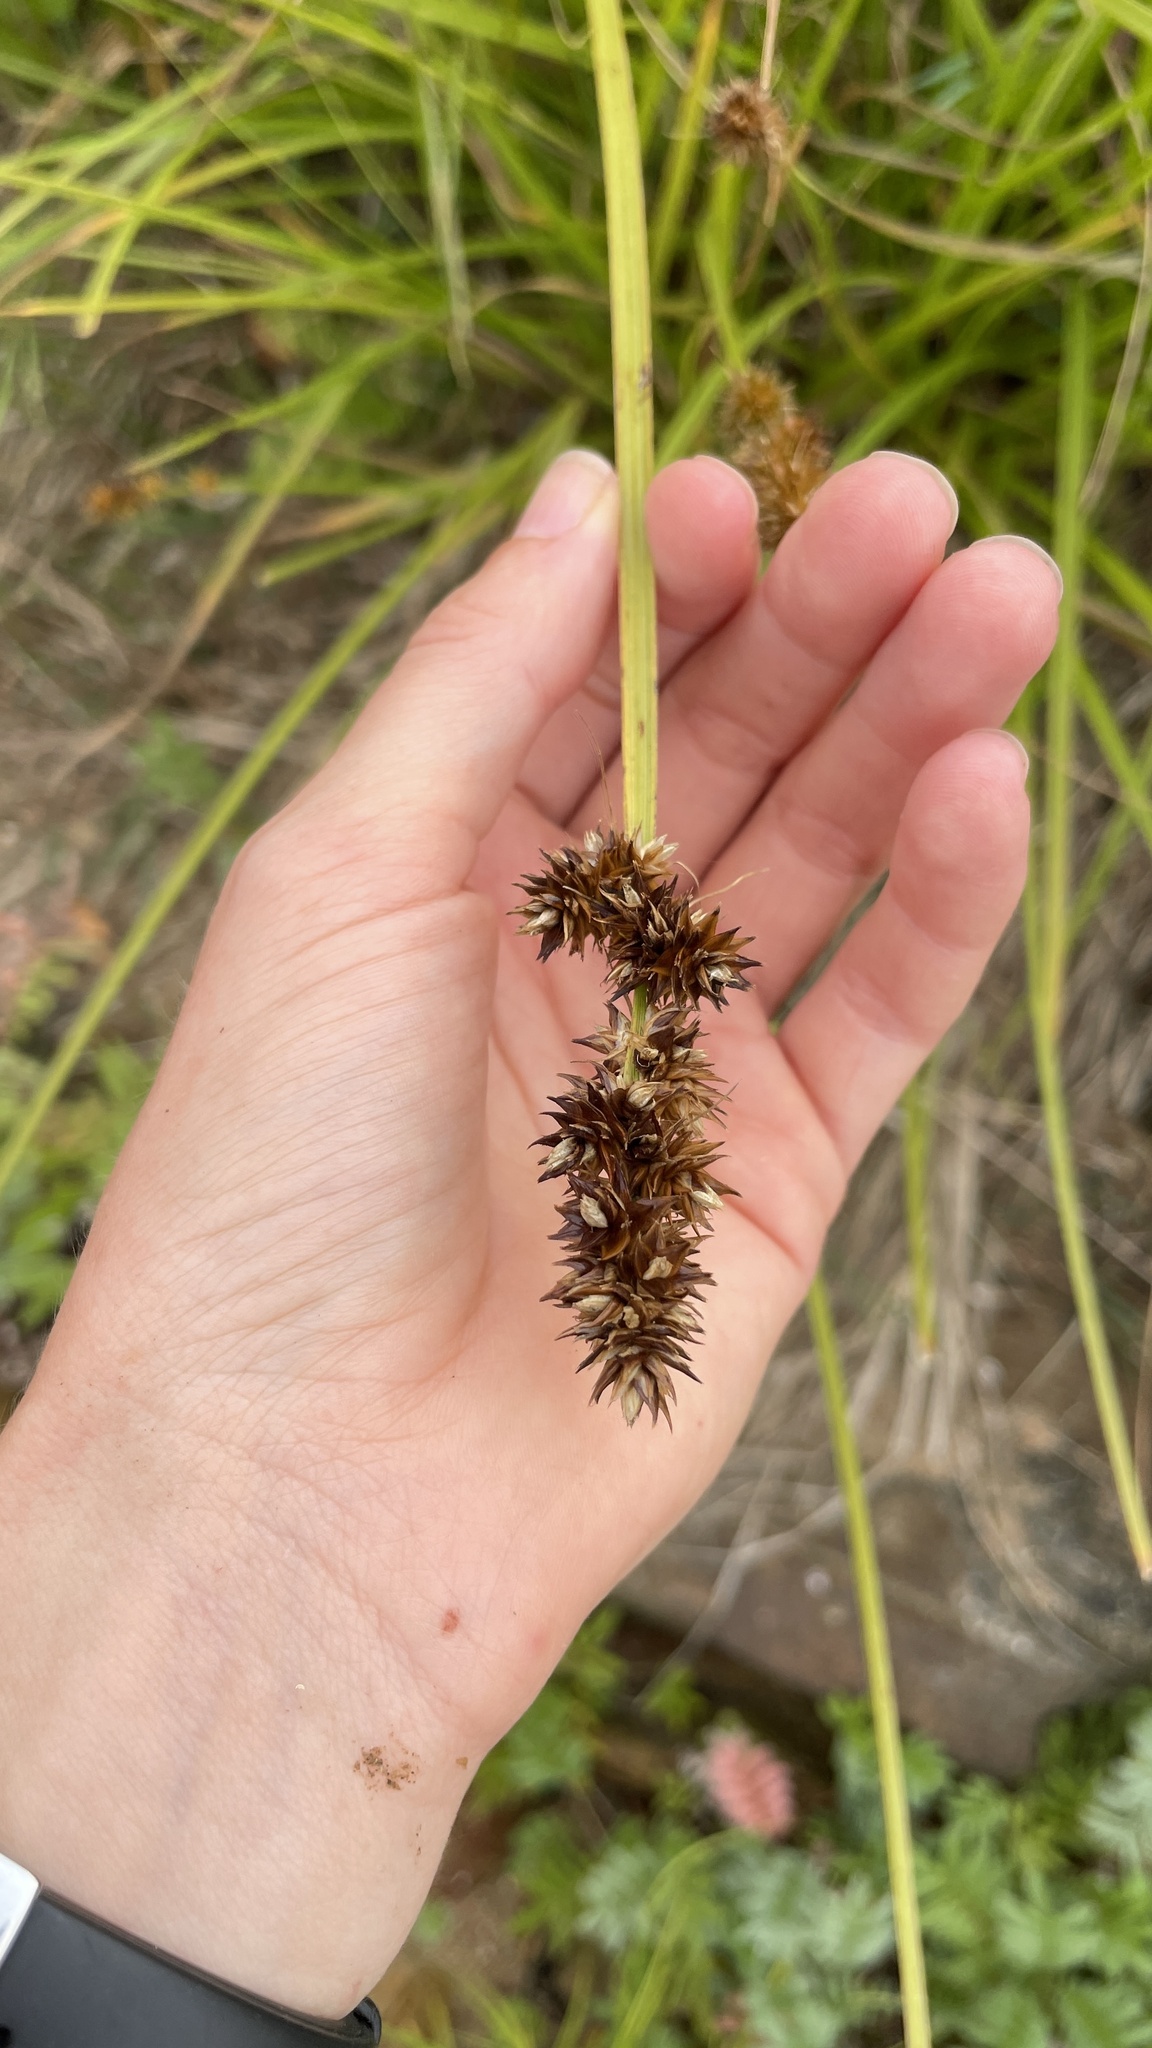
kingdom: Plantae
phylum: Tracheophyta
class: Liliopsida
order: Poales
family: Cyperaceae
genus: Carex
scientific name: Carex otrubae
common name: False fox-sedge
